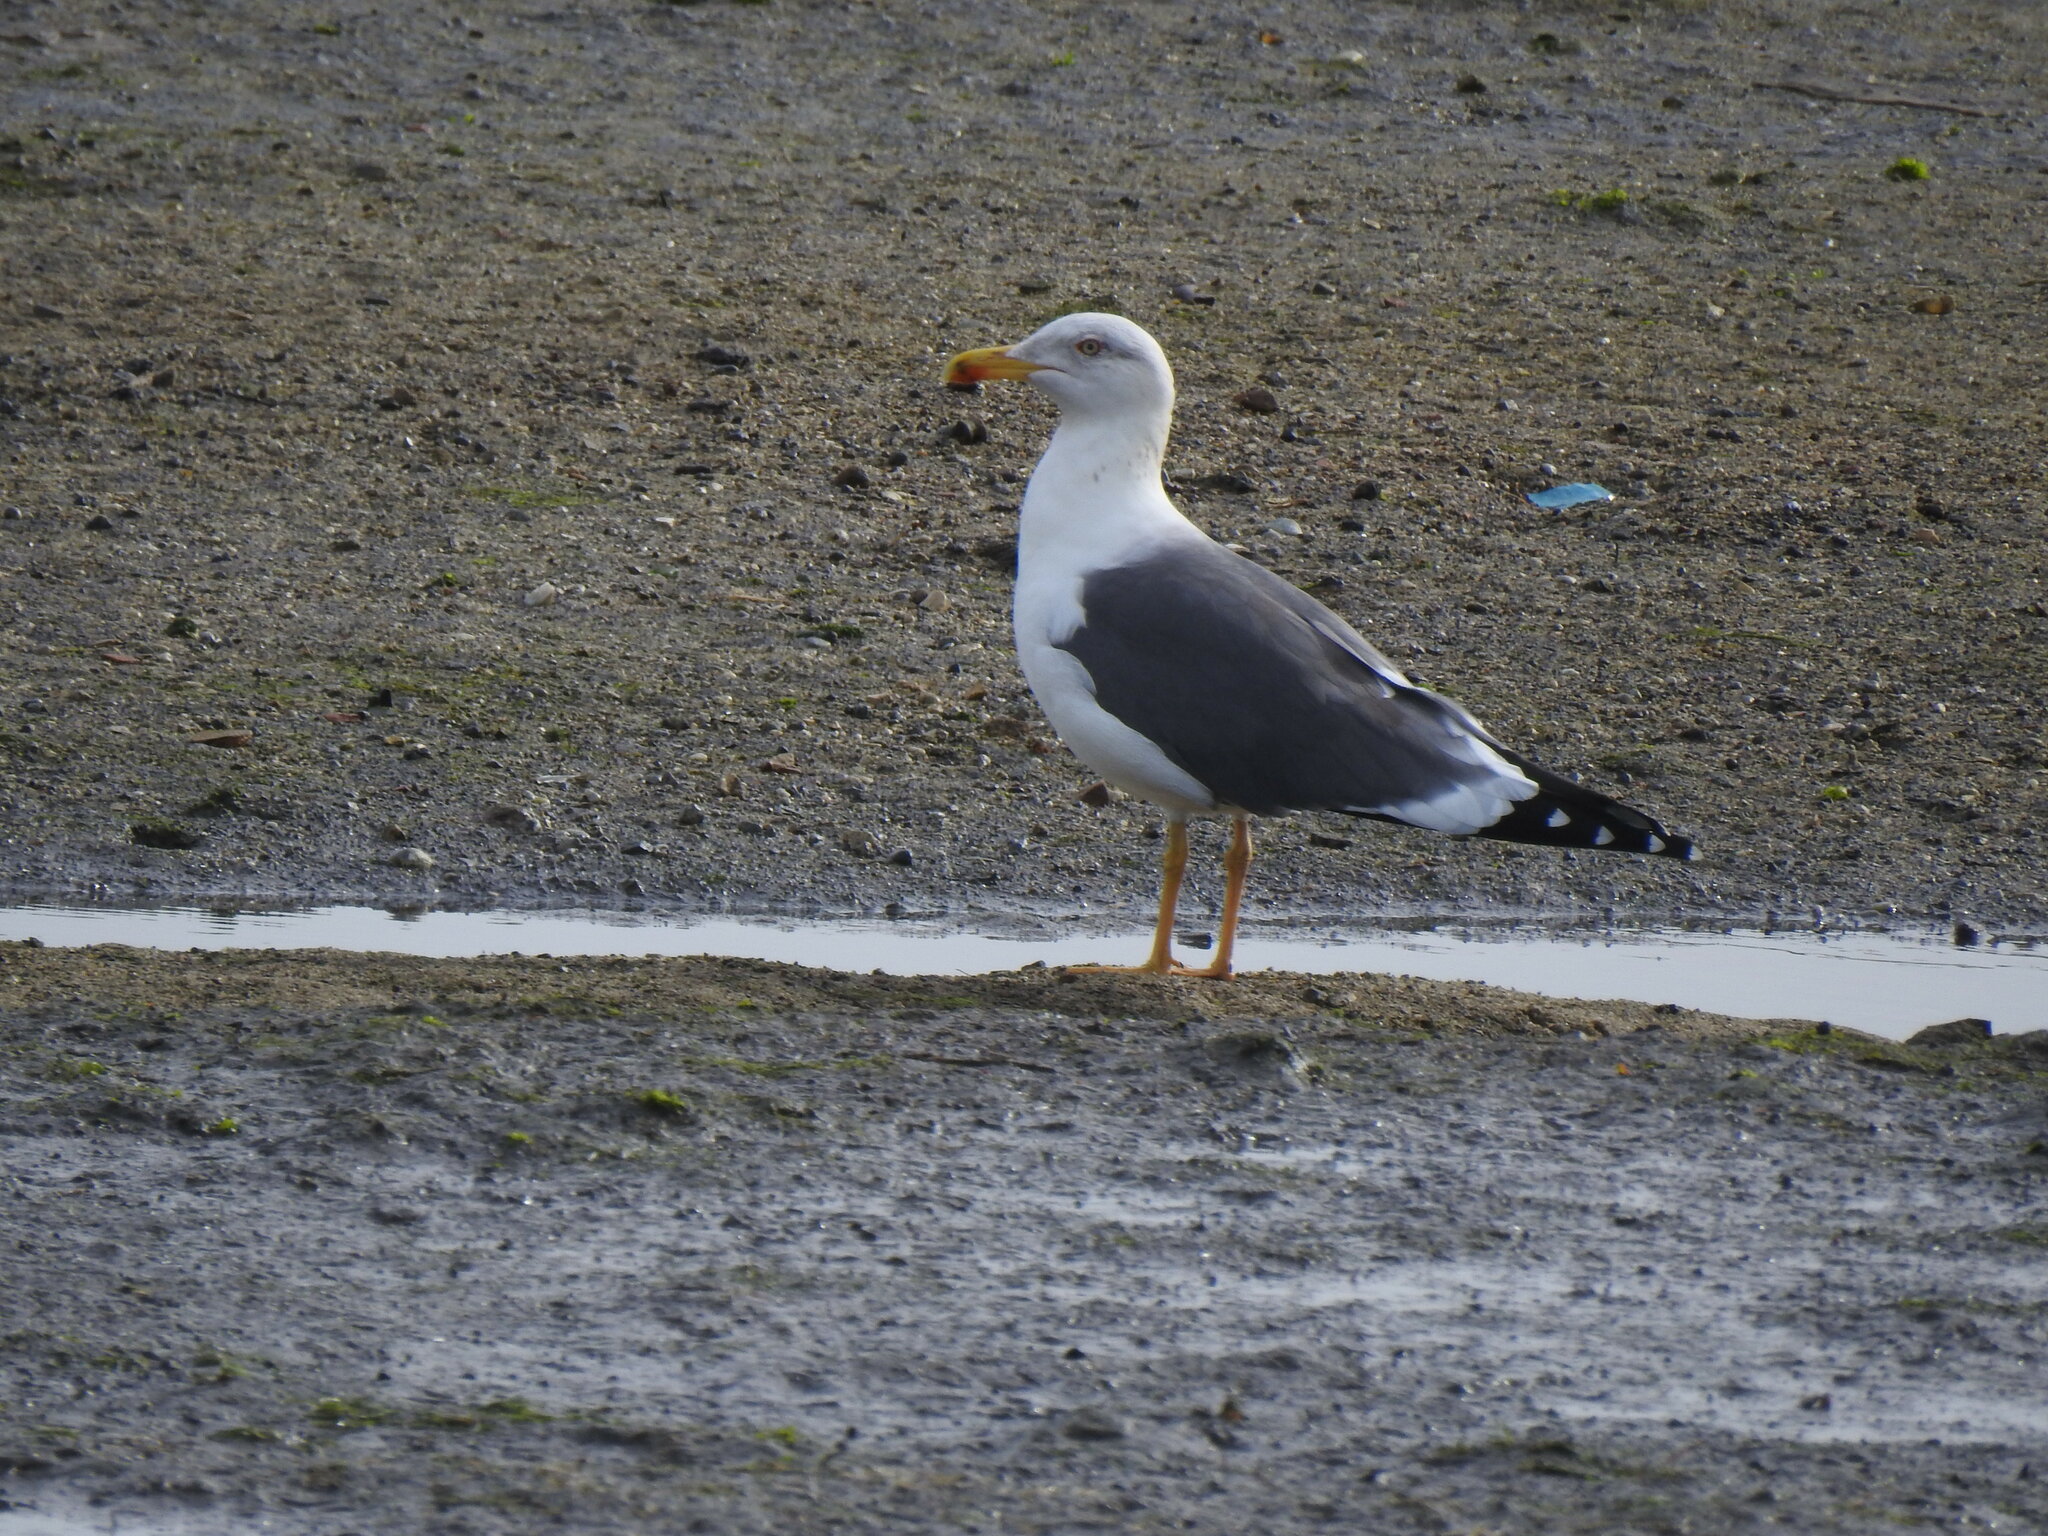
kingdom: Animalia
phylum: Chordata
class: Aves
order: Charadriiformes
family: Laridae
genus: Larus
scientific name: Larus fuscus
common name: Lesser black-backed gull
